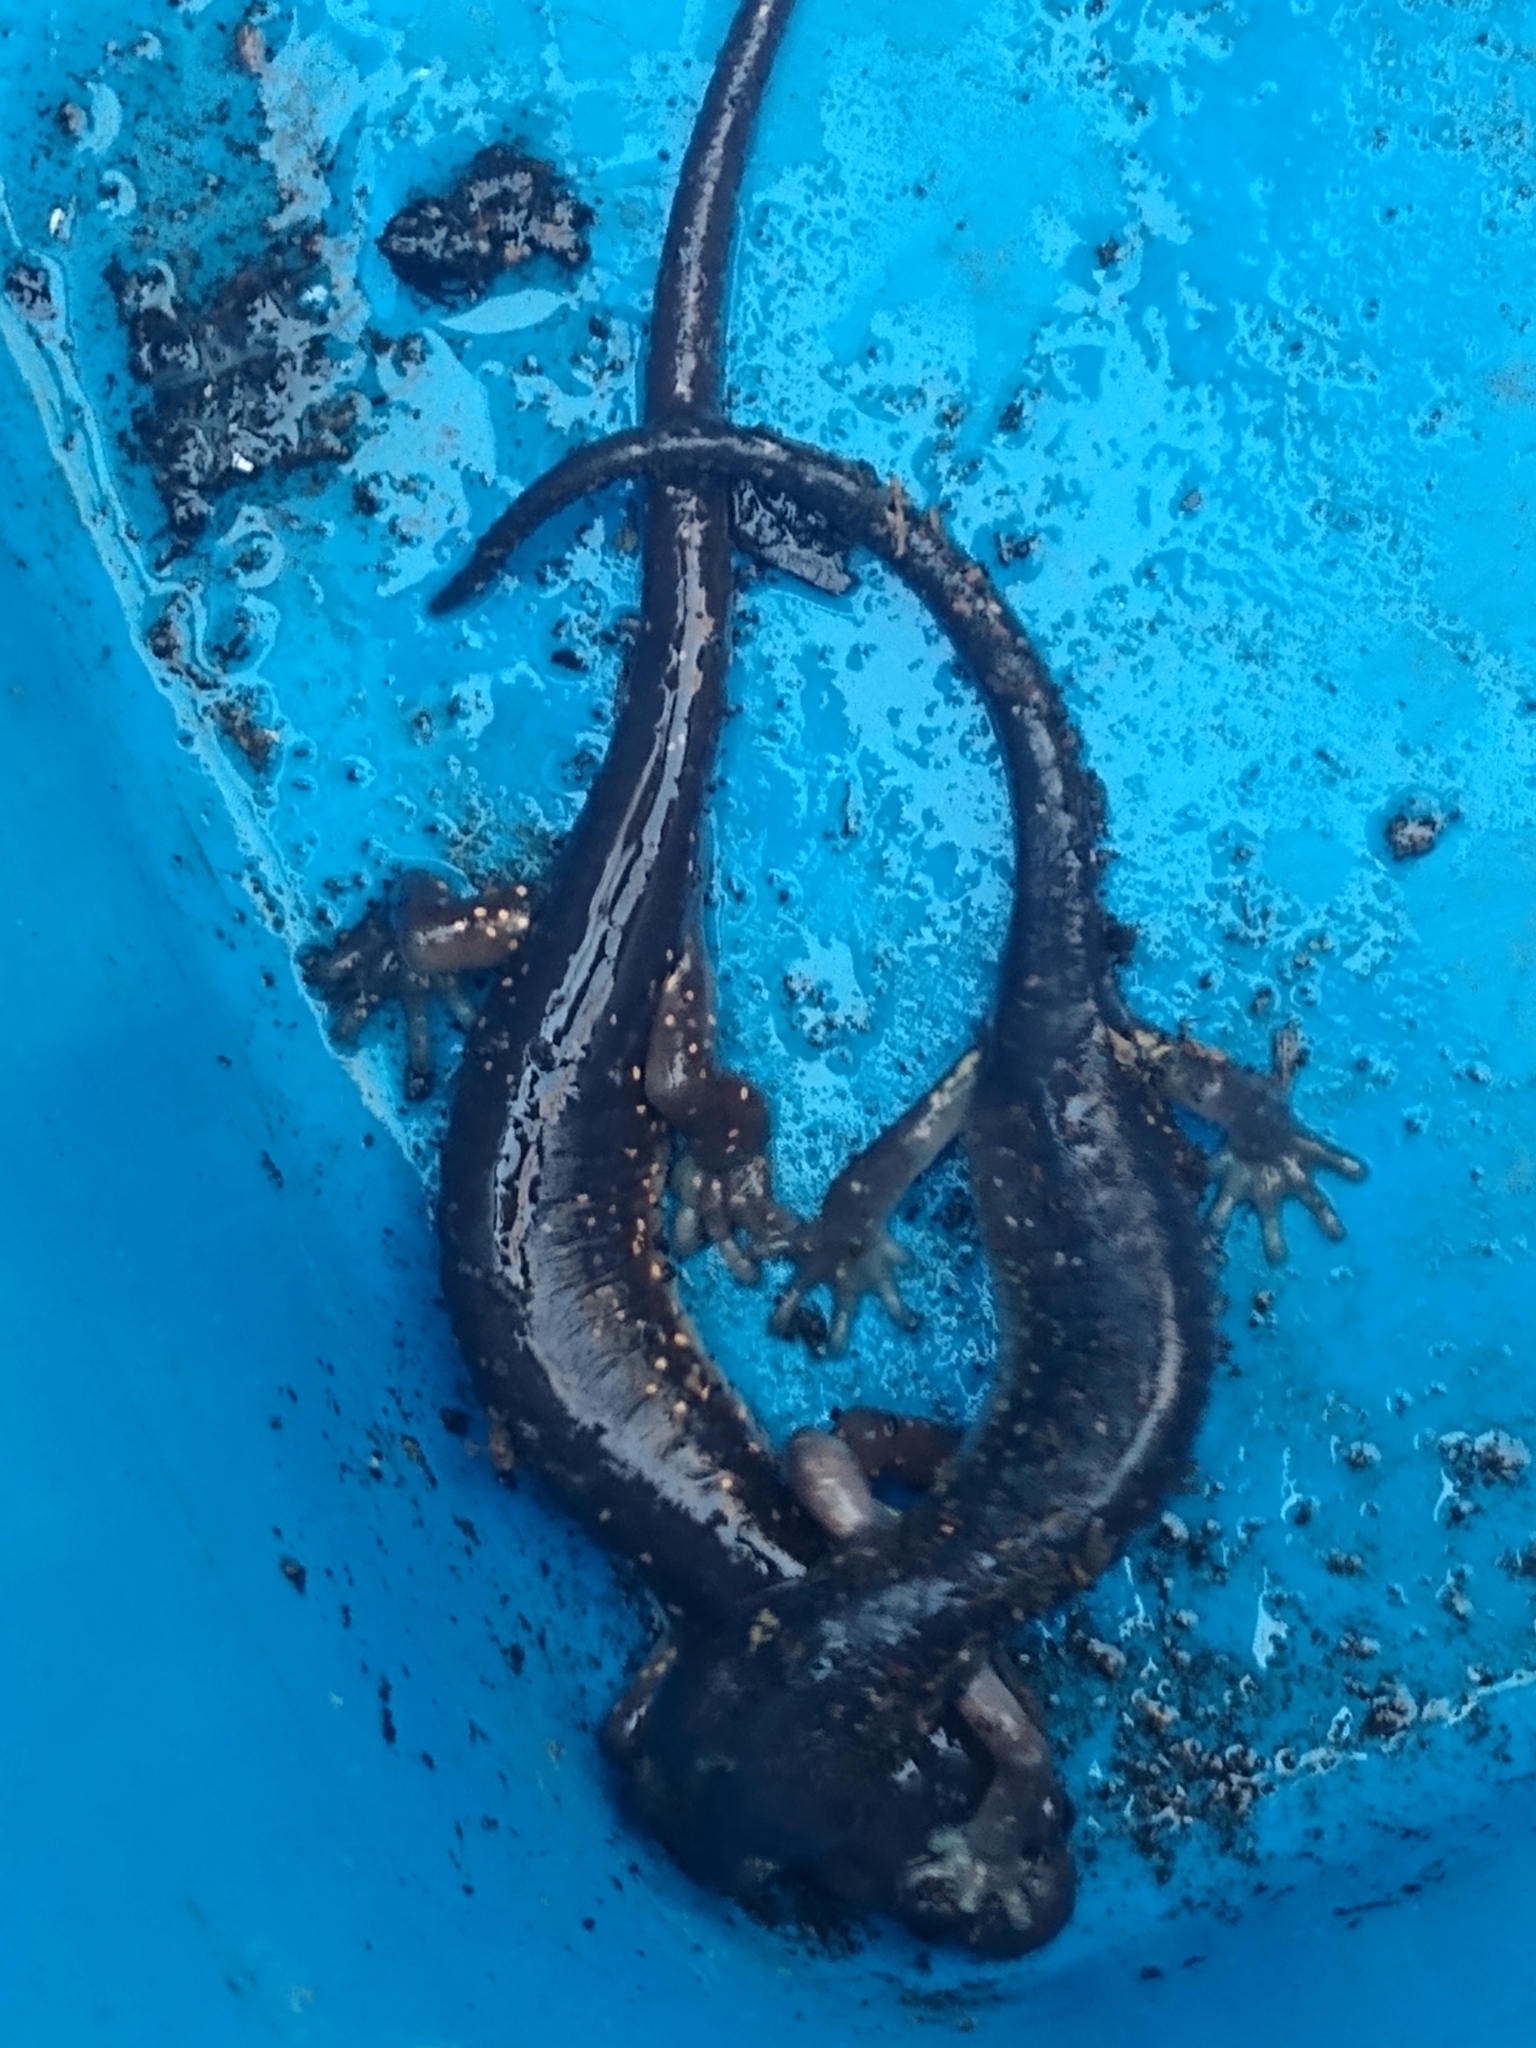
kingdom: Animalia
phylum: Chordata
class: Amphibia
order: Caudata
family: Plethodontidae
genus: Aneides
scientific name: Aneides lugubris
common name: Arboreal salamander
